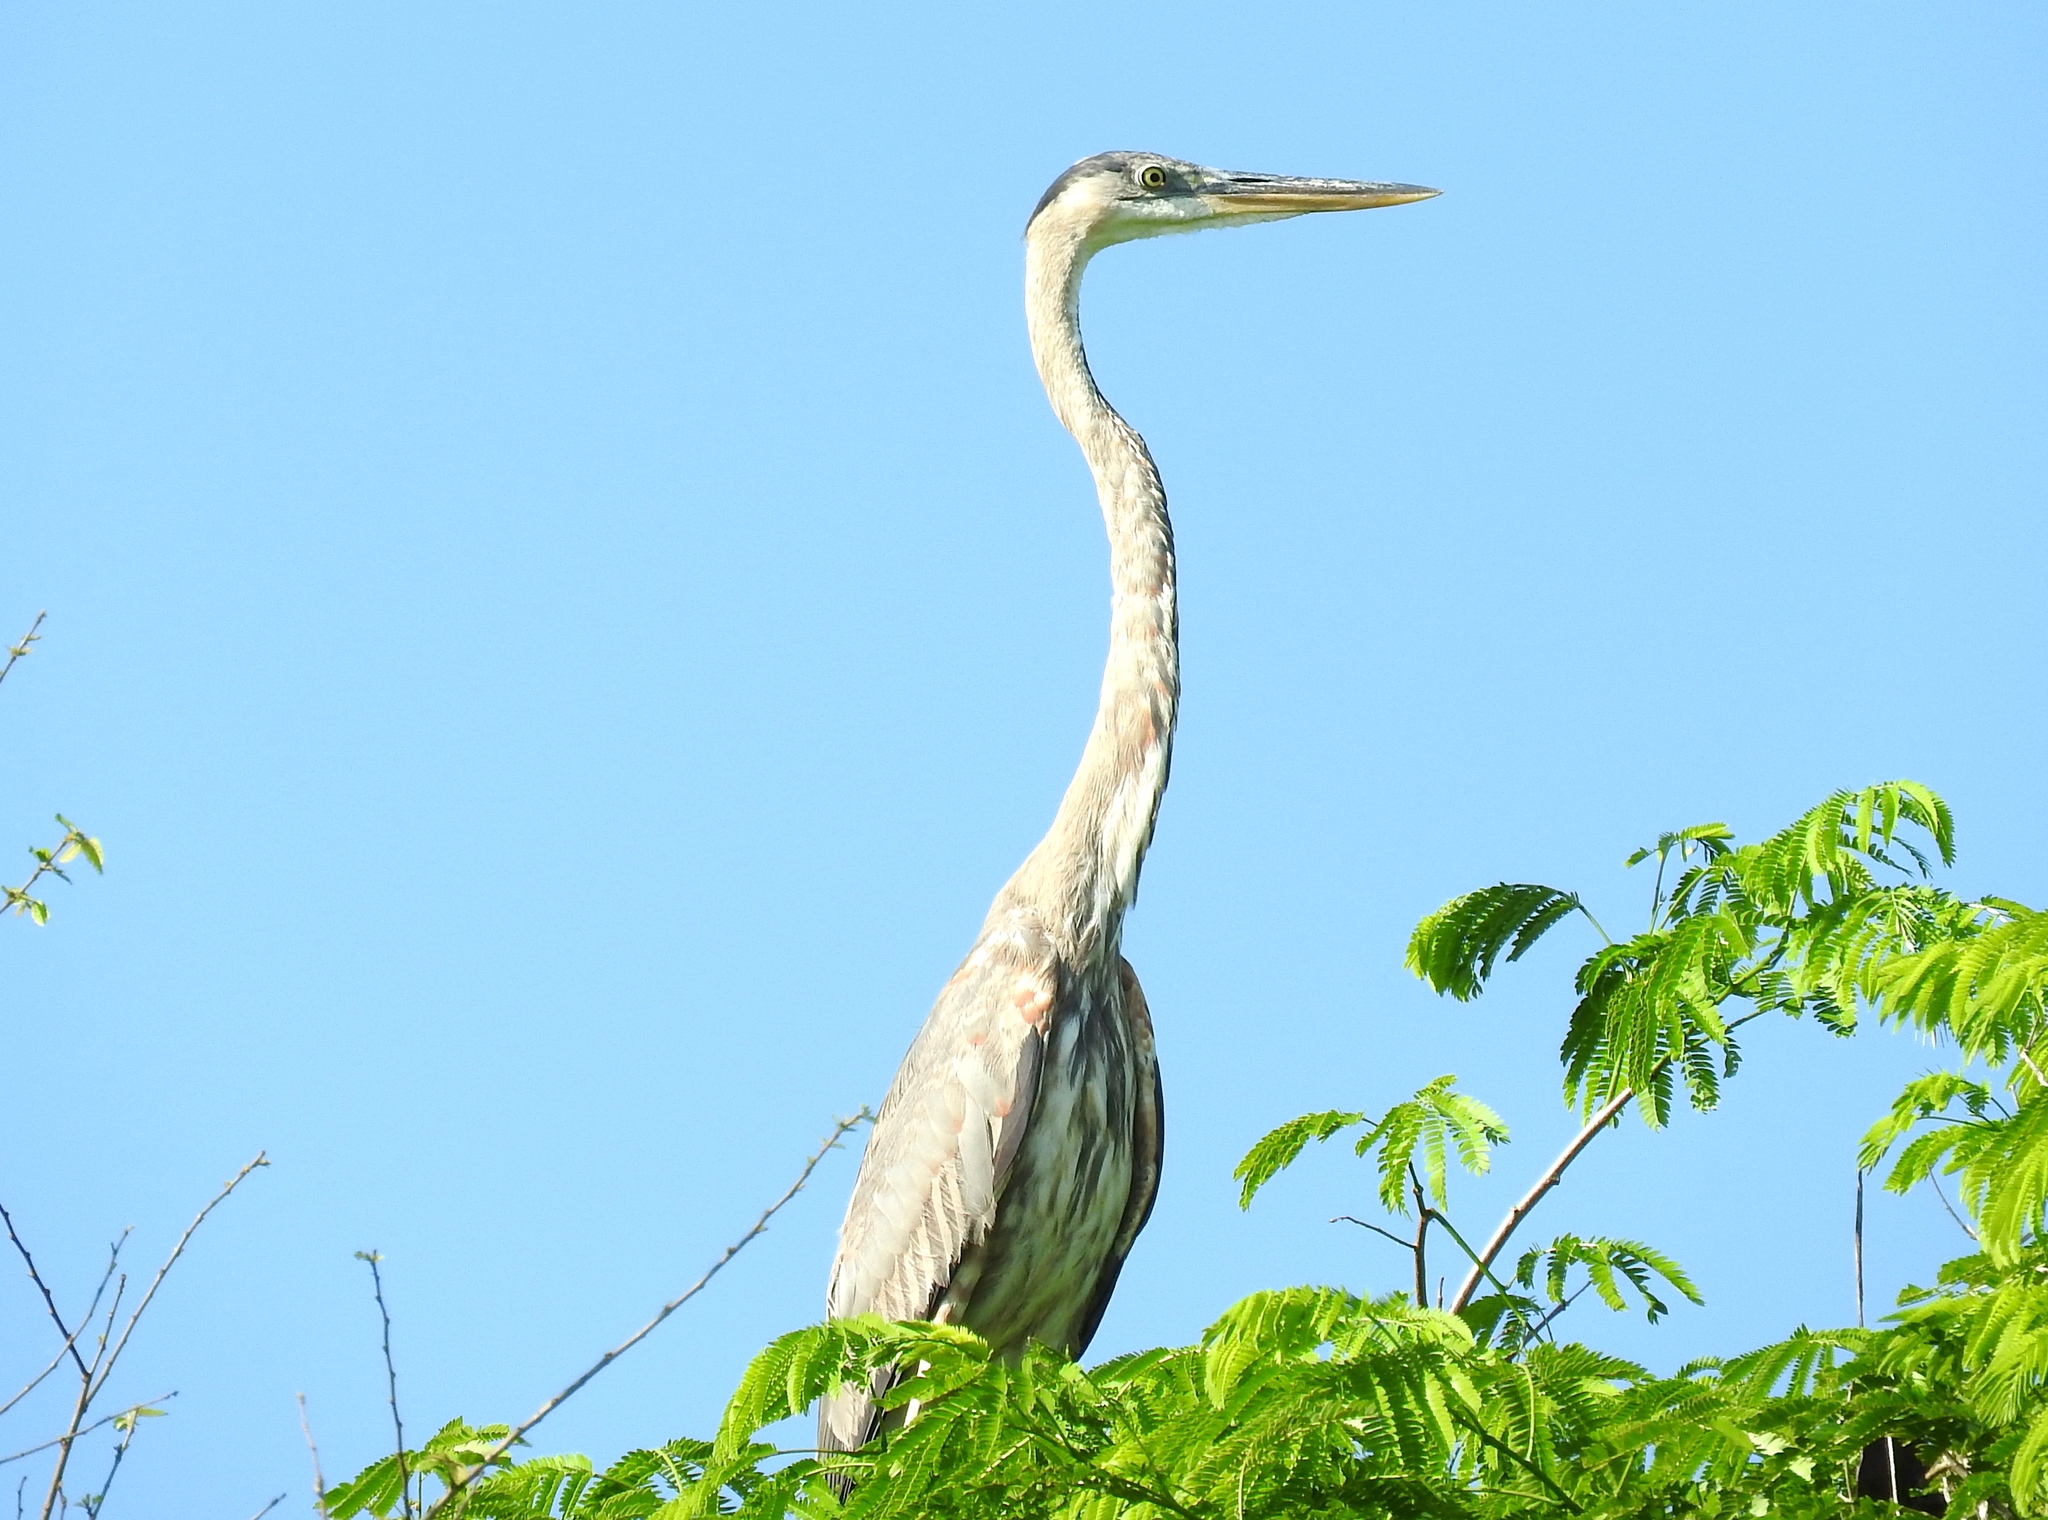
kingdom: Animalia
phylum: Chordata
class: Aves
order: Pelecaniformes
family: Ardeidae
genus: Ardea
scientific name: Ardea herodias
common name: Great blue heron
